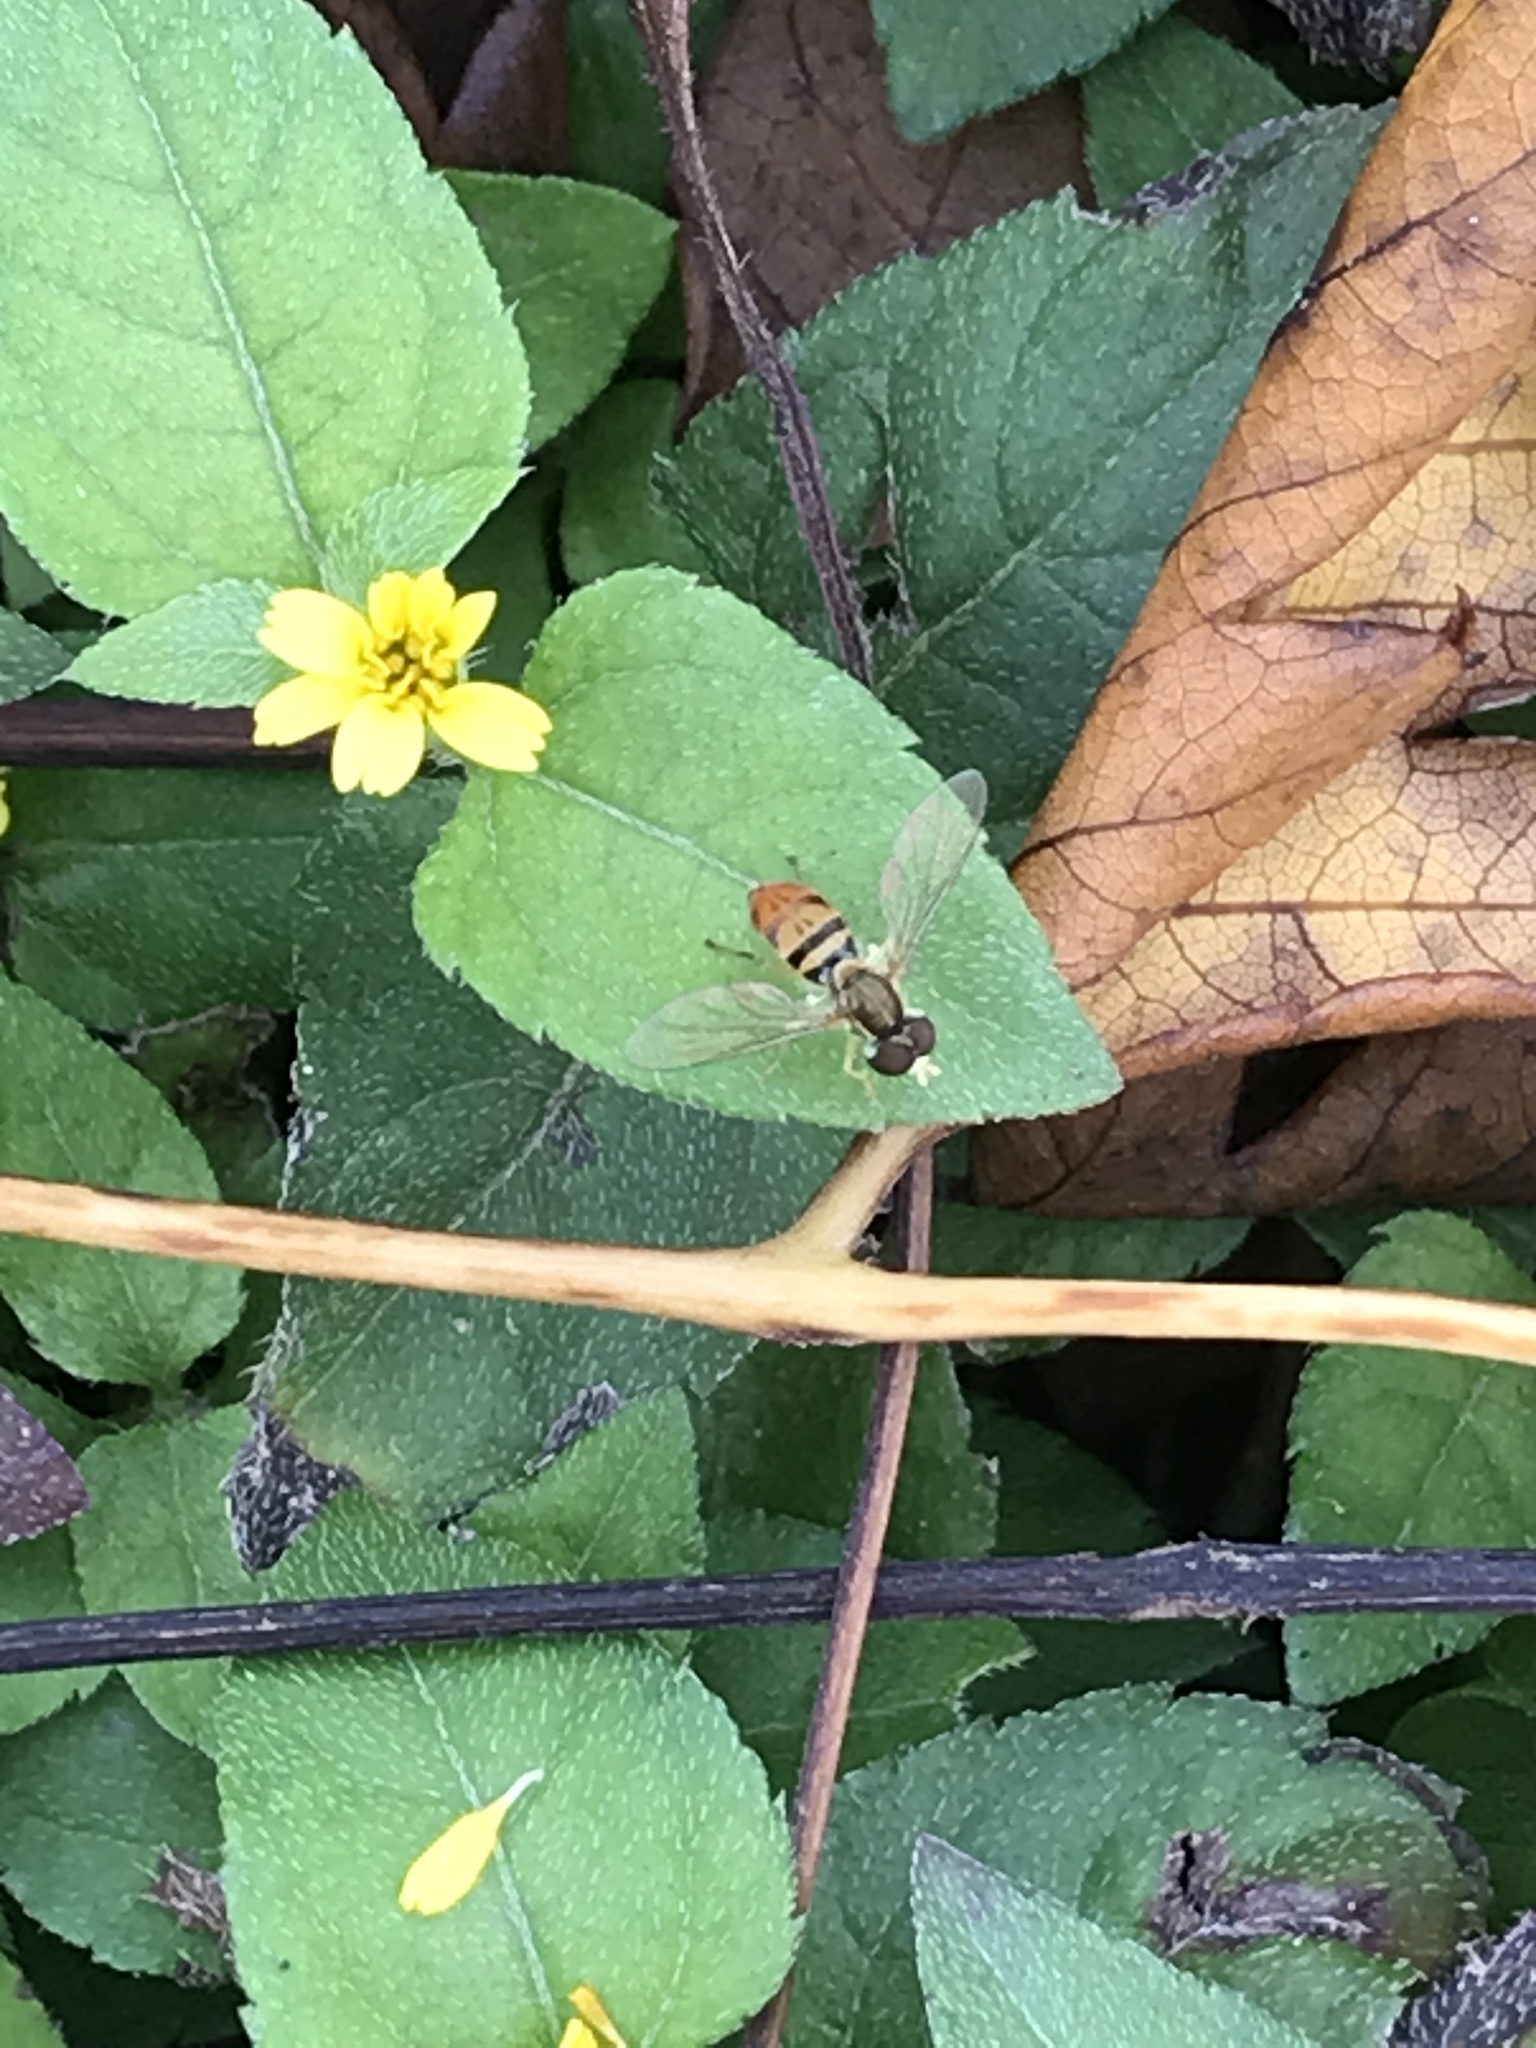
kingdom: Animalia
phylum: Arthropoda
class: Insecta
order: Diptera
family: Syrphidae
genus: Toxomerus
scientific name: Toxomerus marginatus
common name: Syrphid fly
